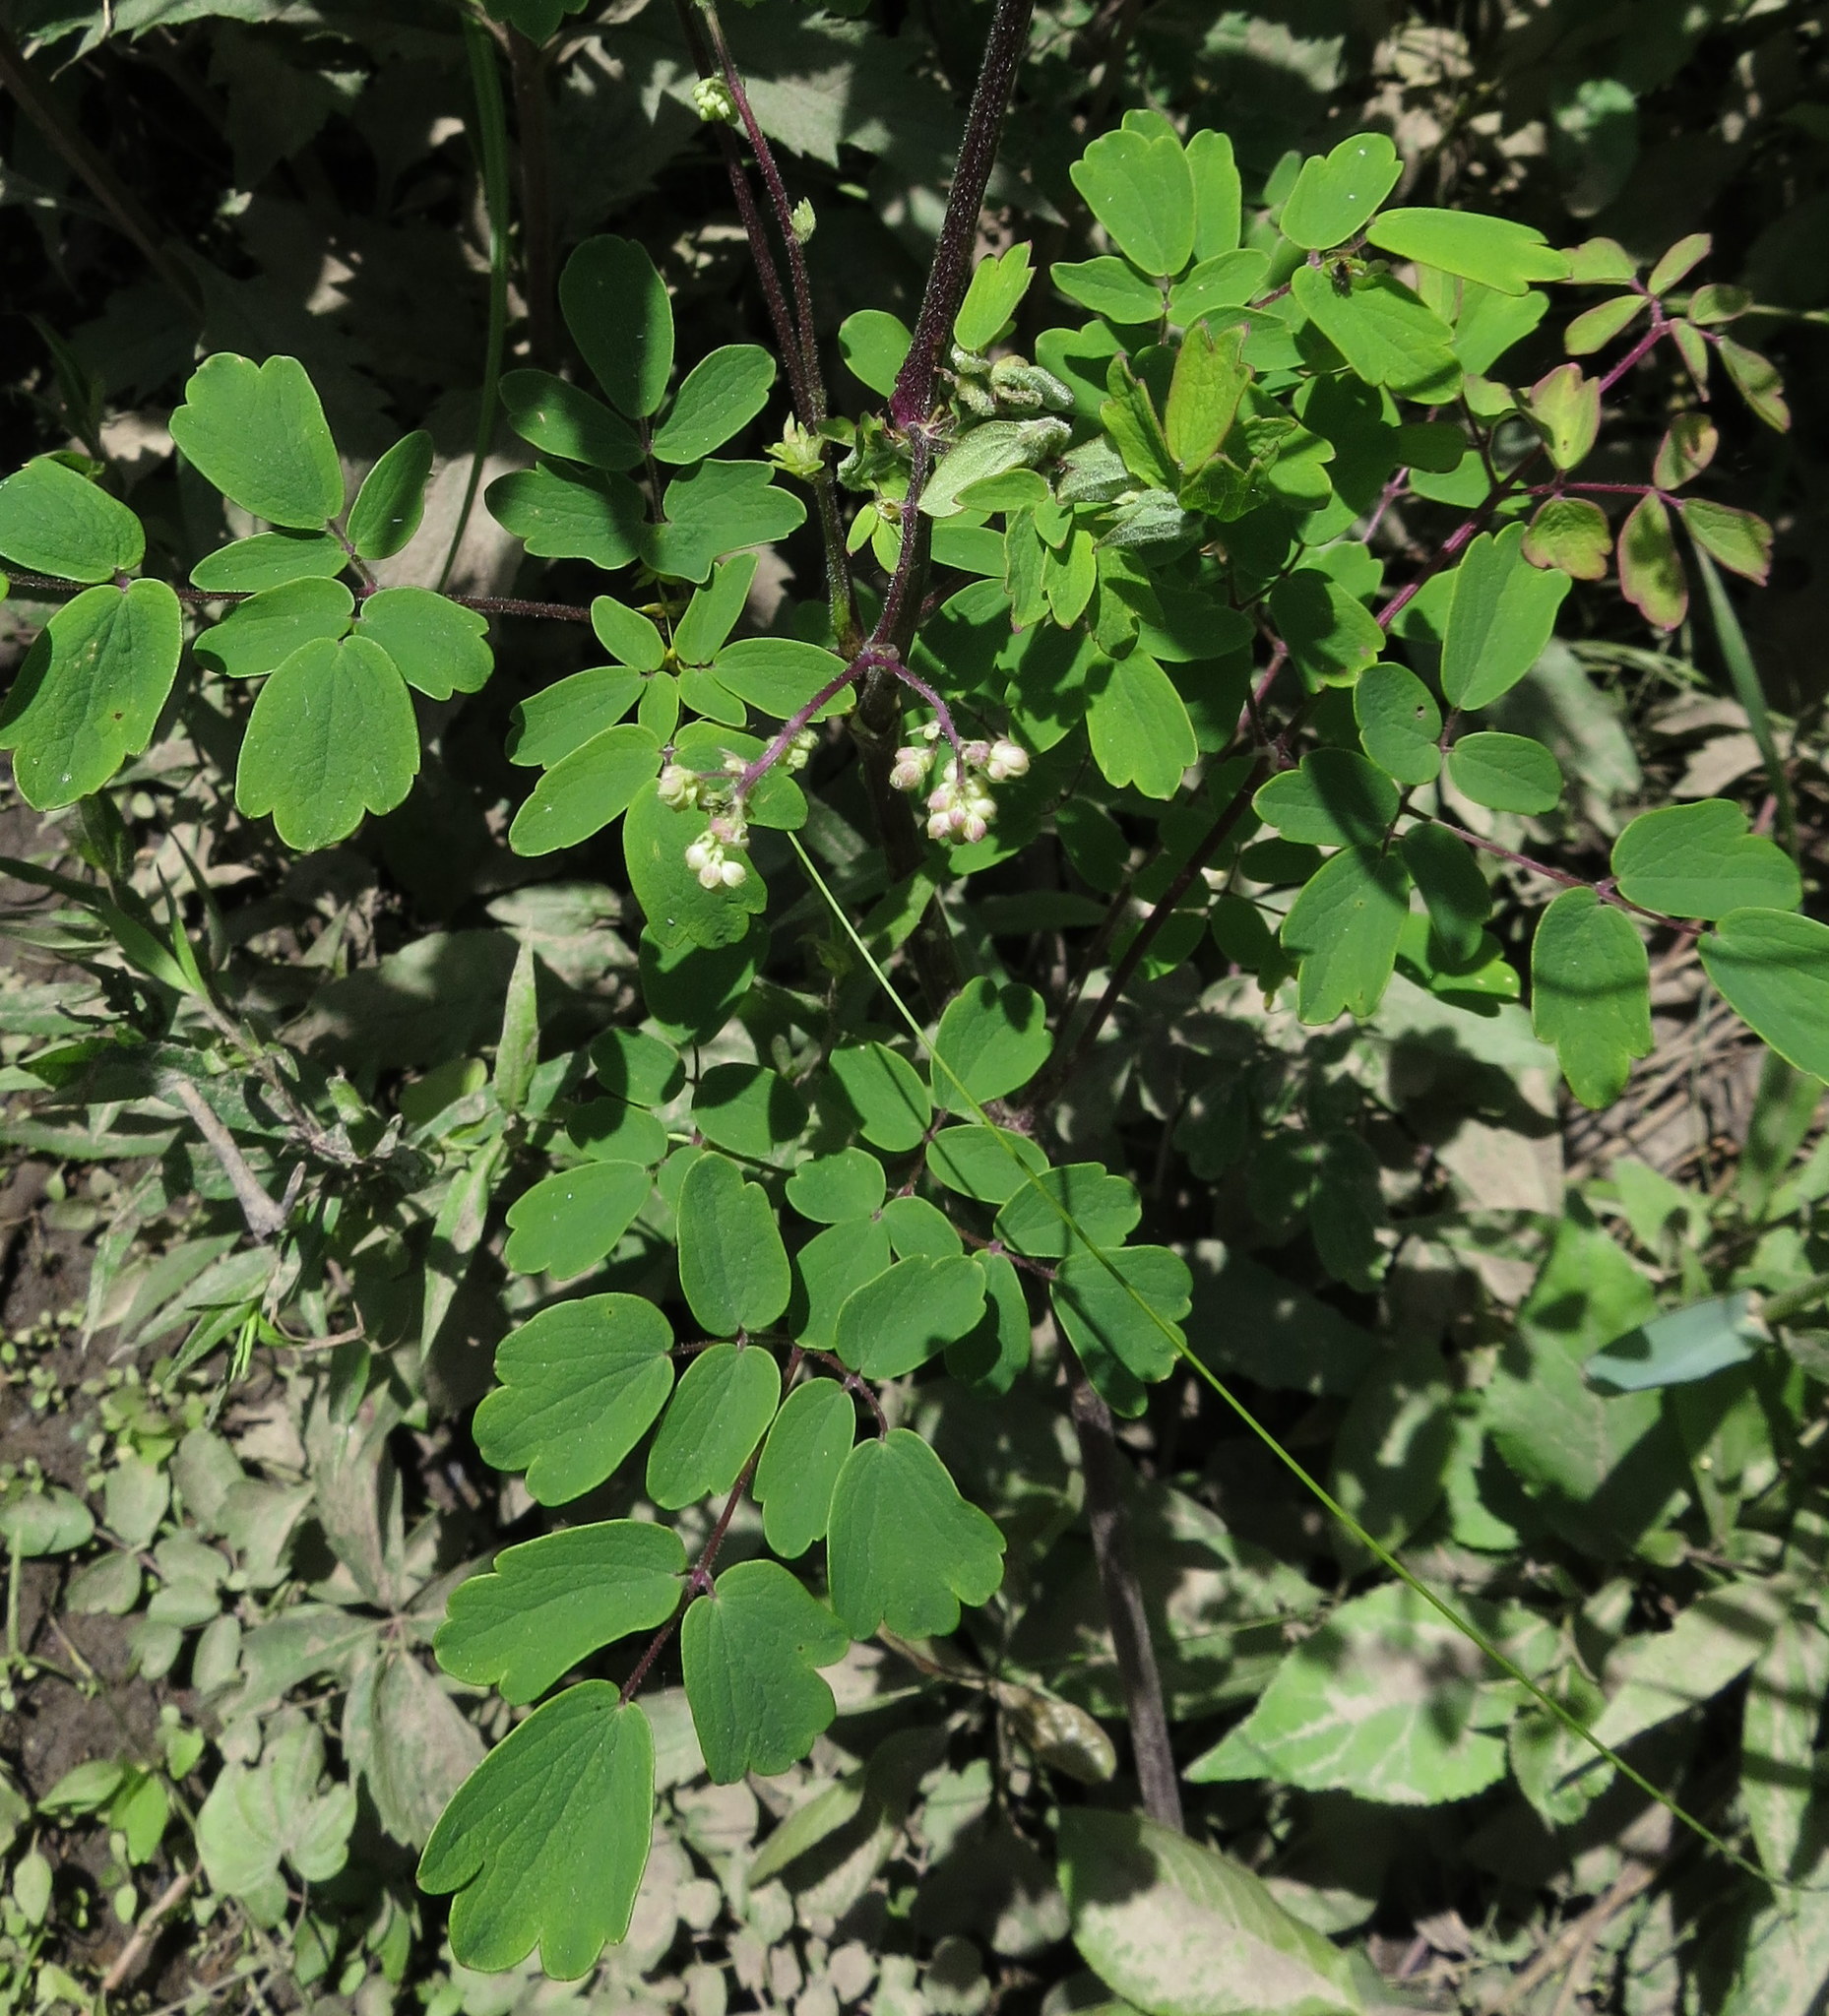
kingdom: Plantae
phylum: Tracheophyta
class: Magnoliopsida
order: Ranunculales
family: Ranunculaceae
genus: Thalictrum
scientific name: Thalictrum dasycarpum
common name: Purple meadow-rue
